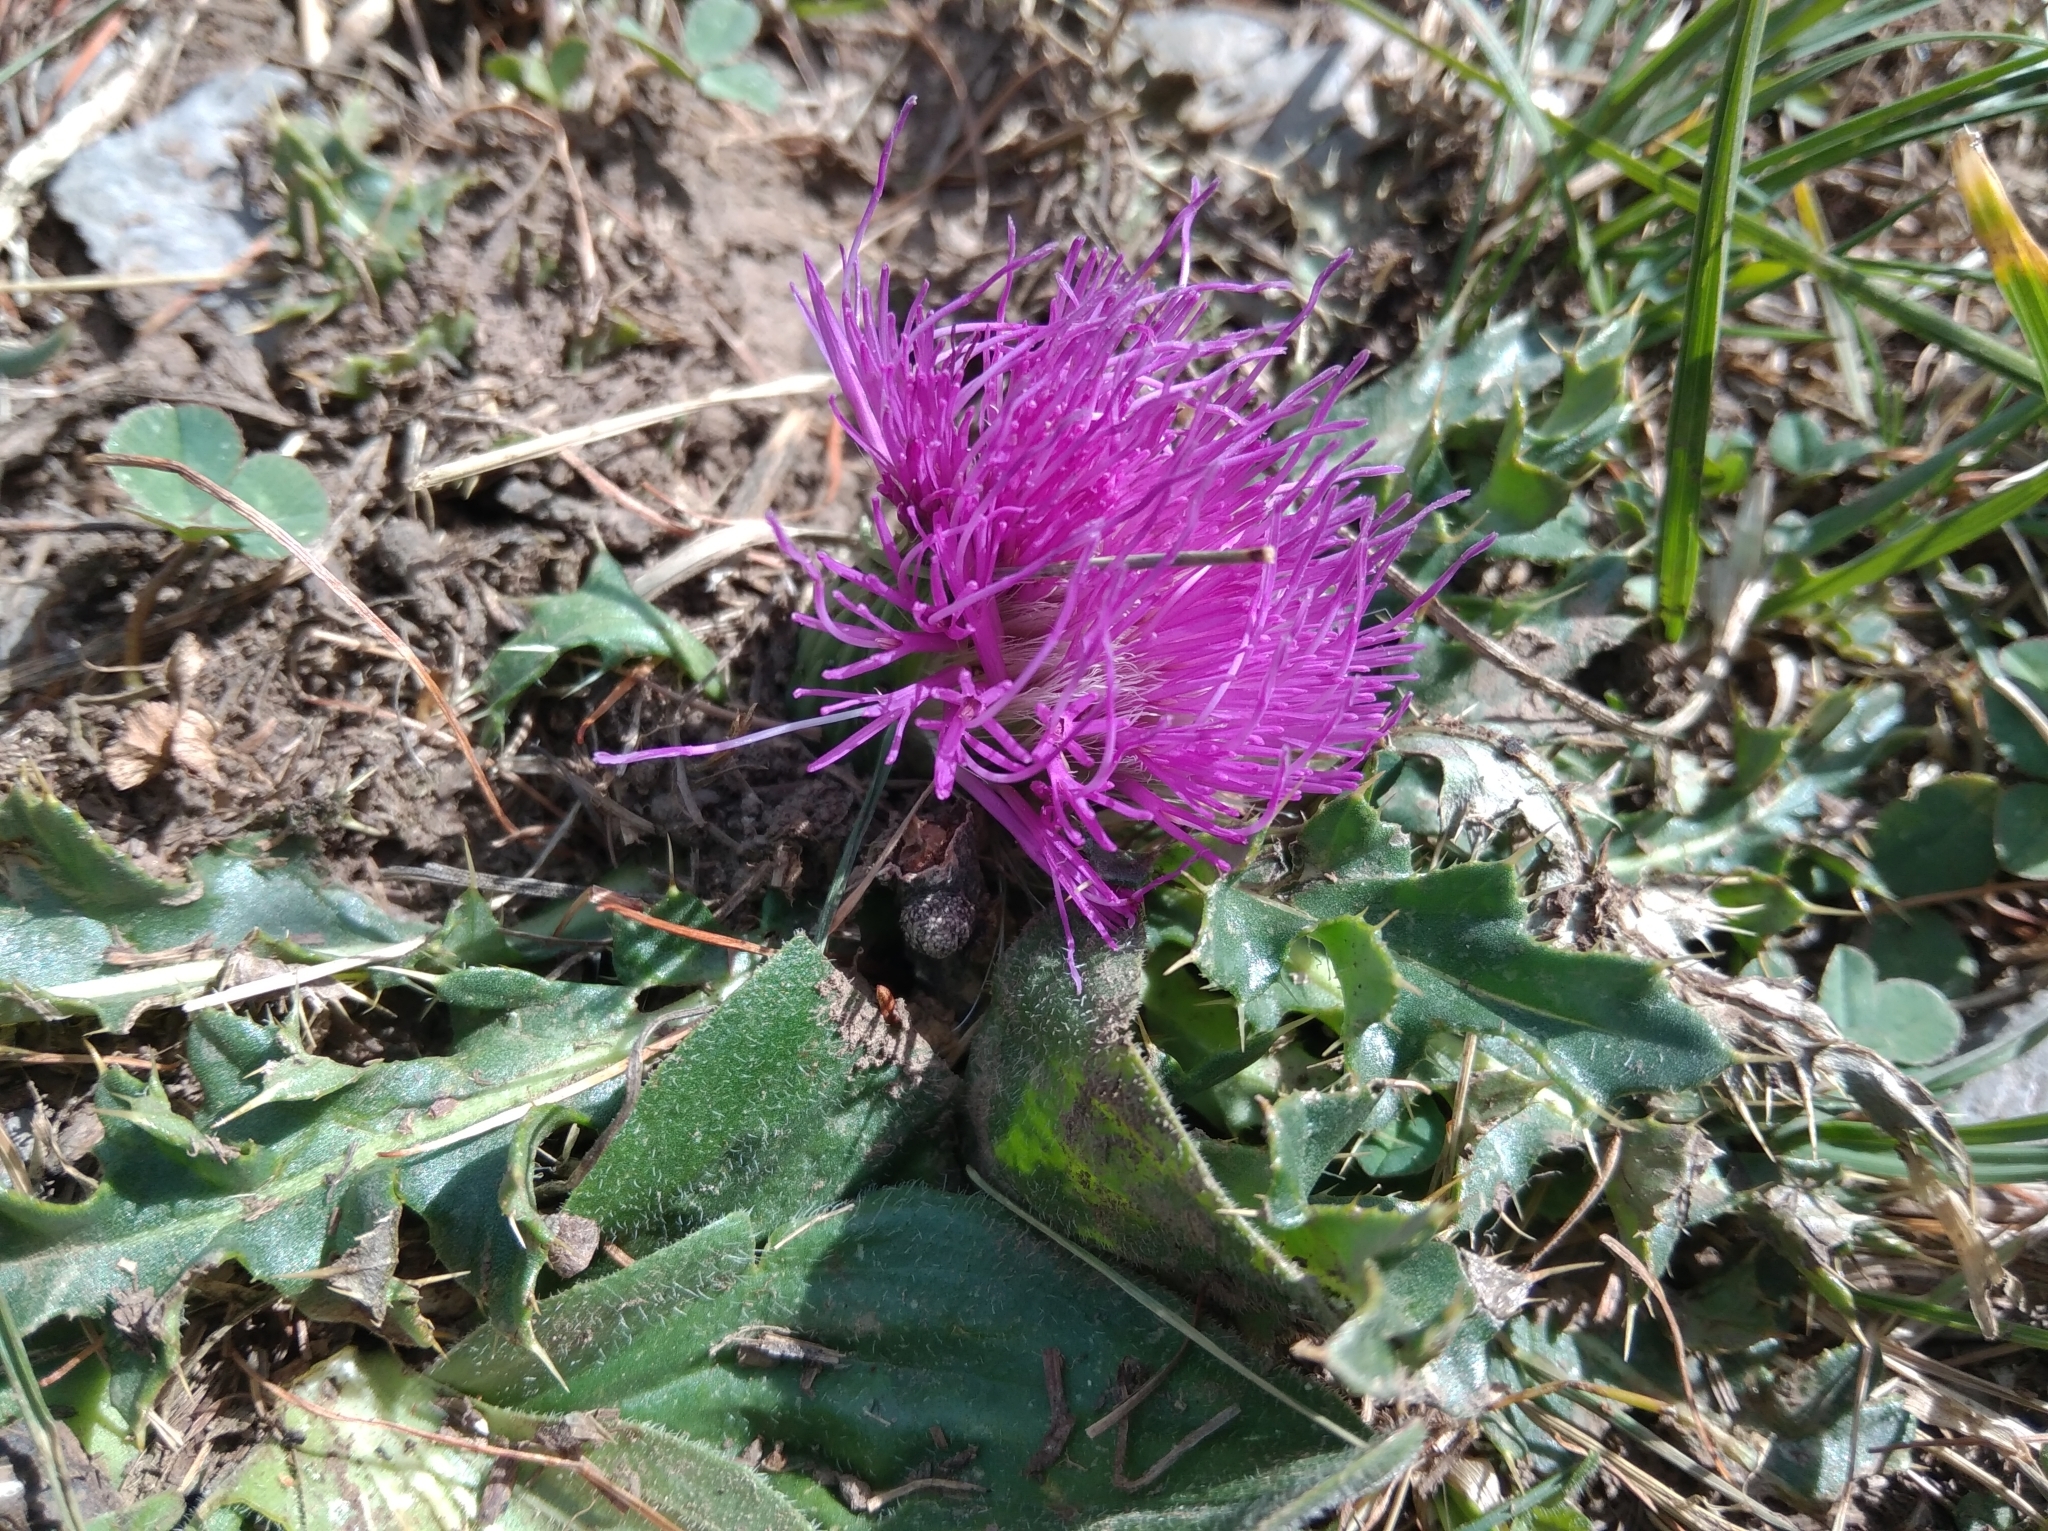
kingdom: Plantae
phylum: Tracheophyta
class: Magnoliopsida
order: Asterales
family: Asteraceae
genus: Cirsium
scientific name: Cirsium acaulon
